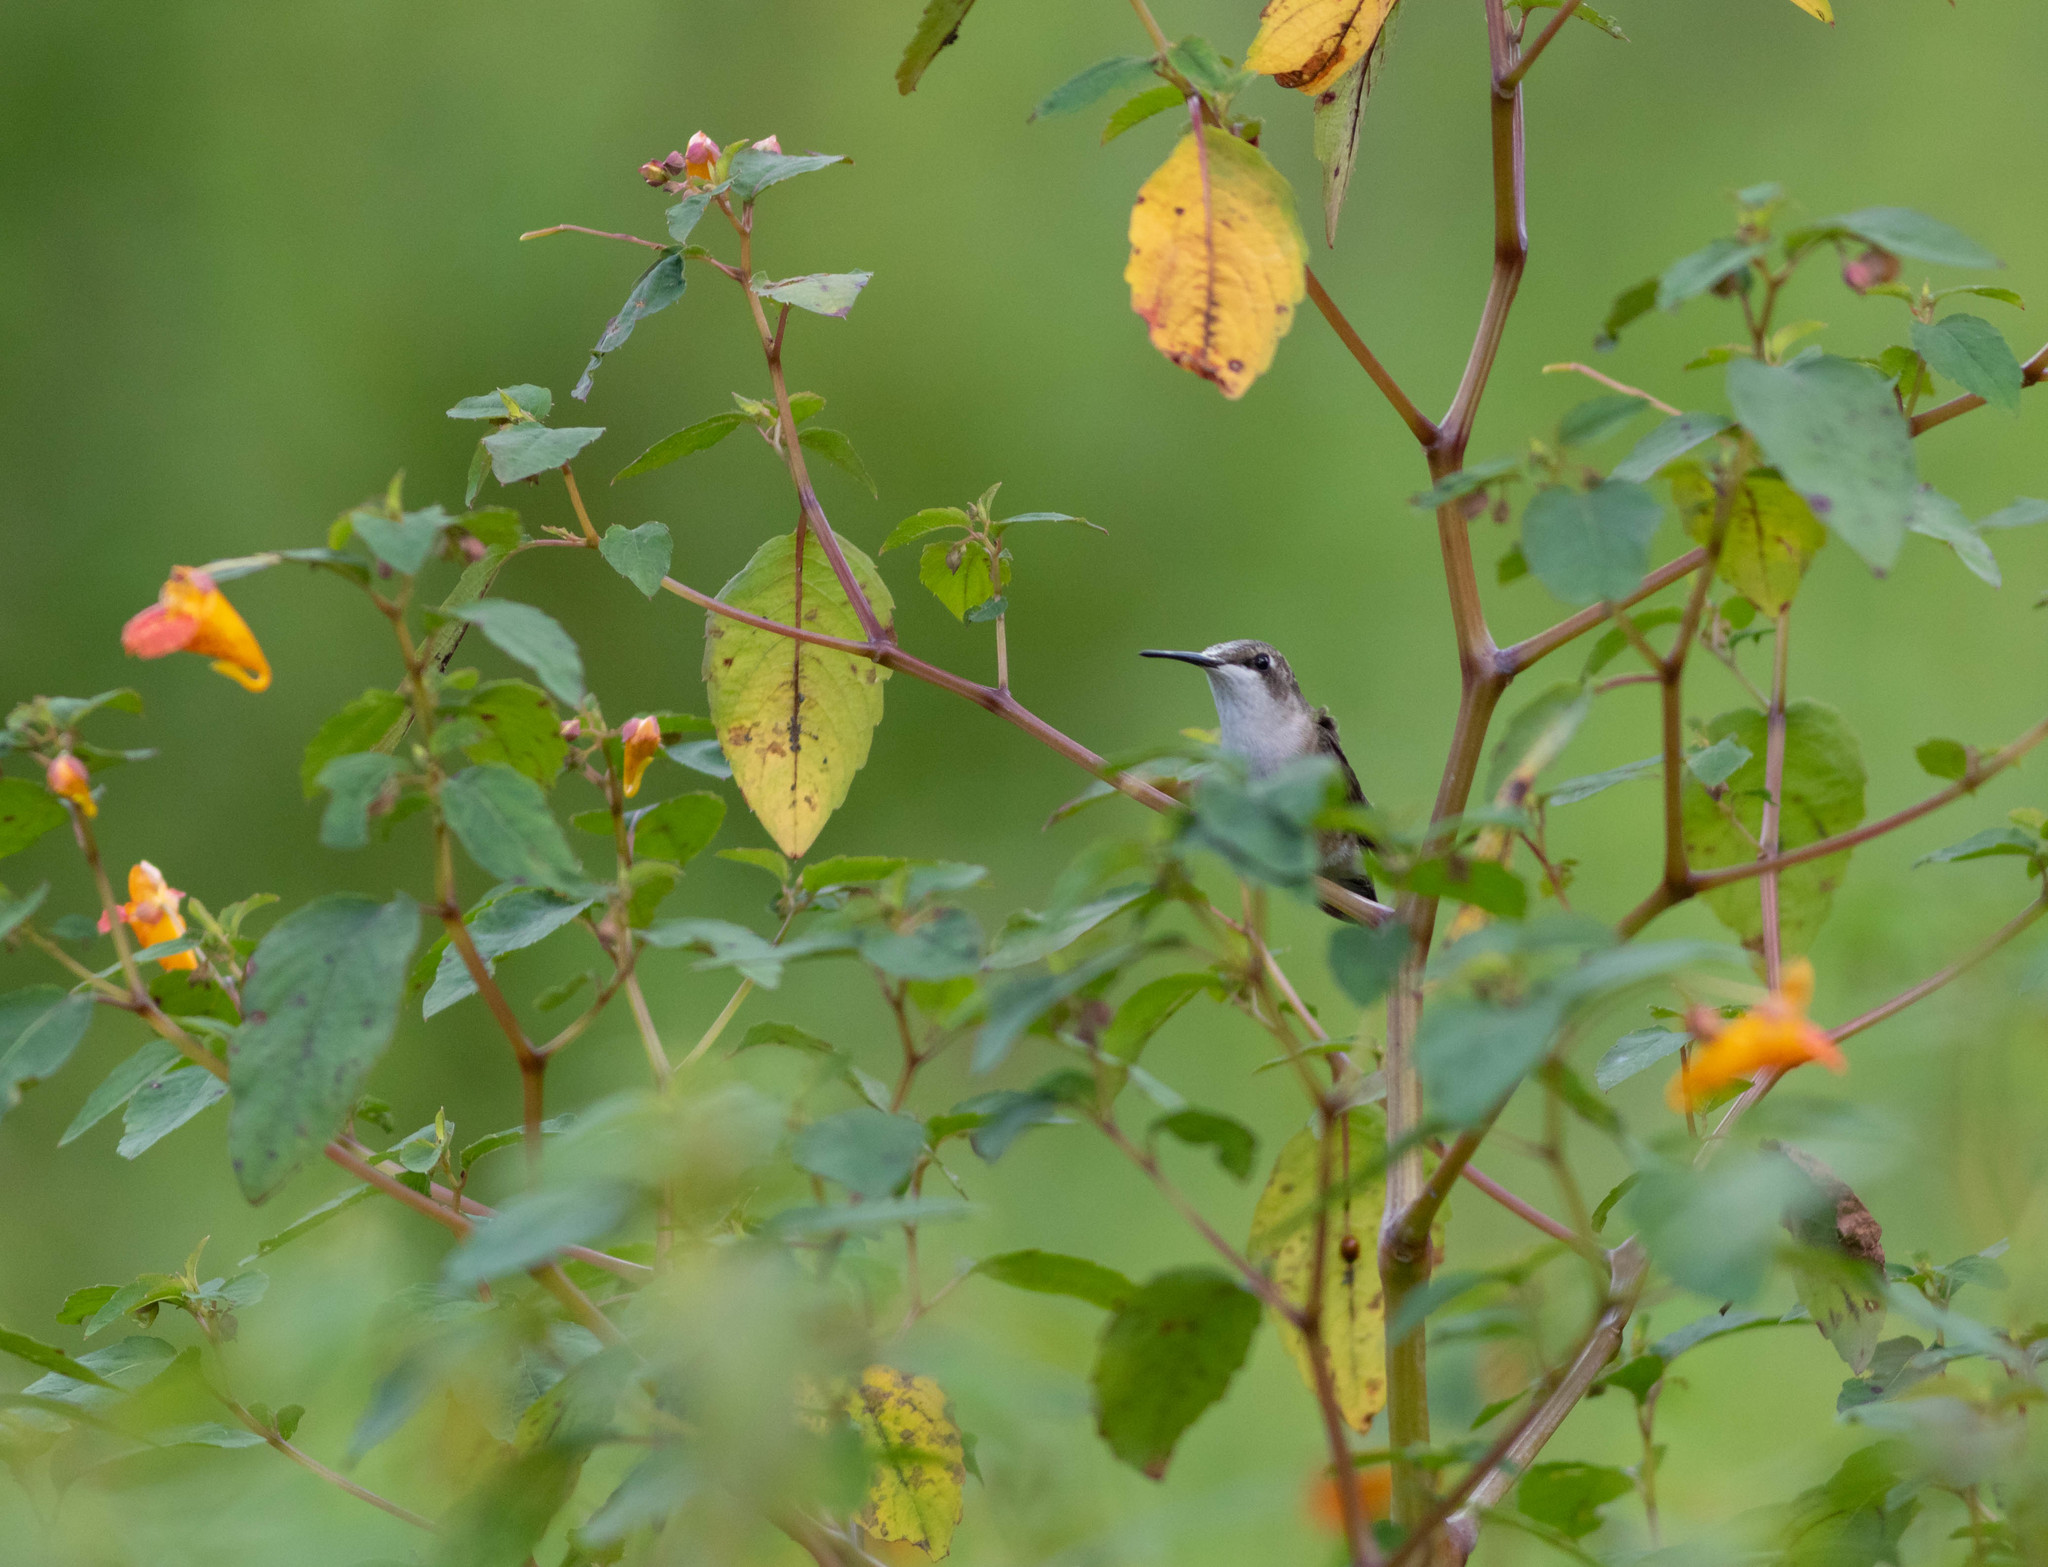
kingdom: Animalia
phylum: Chordata
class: Aves
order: Apodiformes
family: Trochilidae
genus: Archilochus
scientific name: Archilochus colubris
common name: Ruby-throated hummingbird
